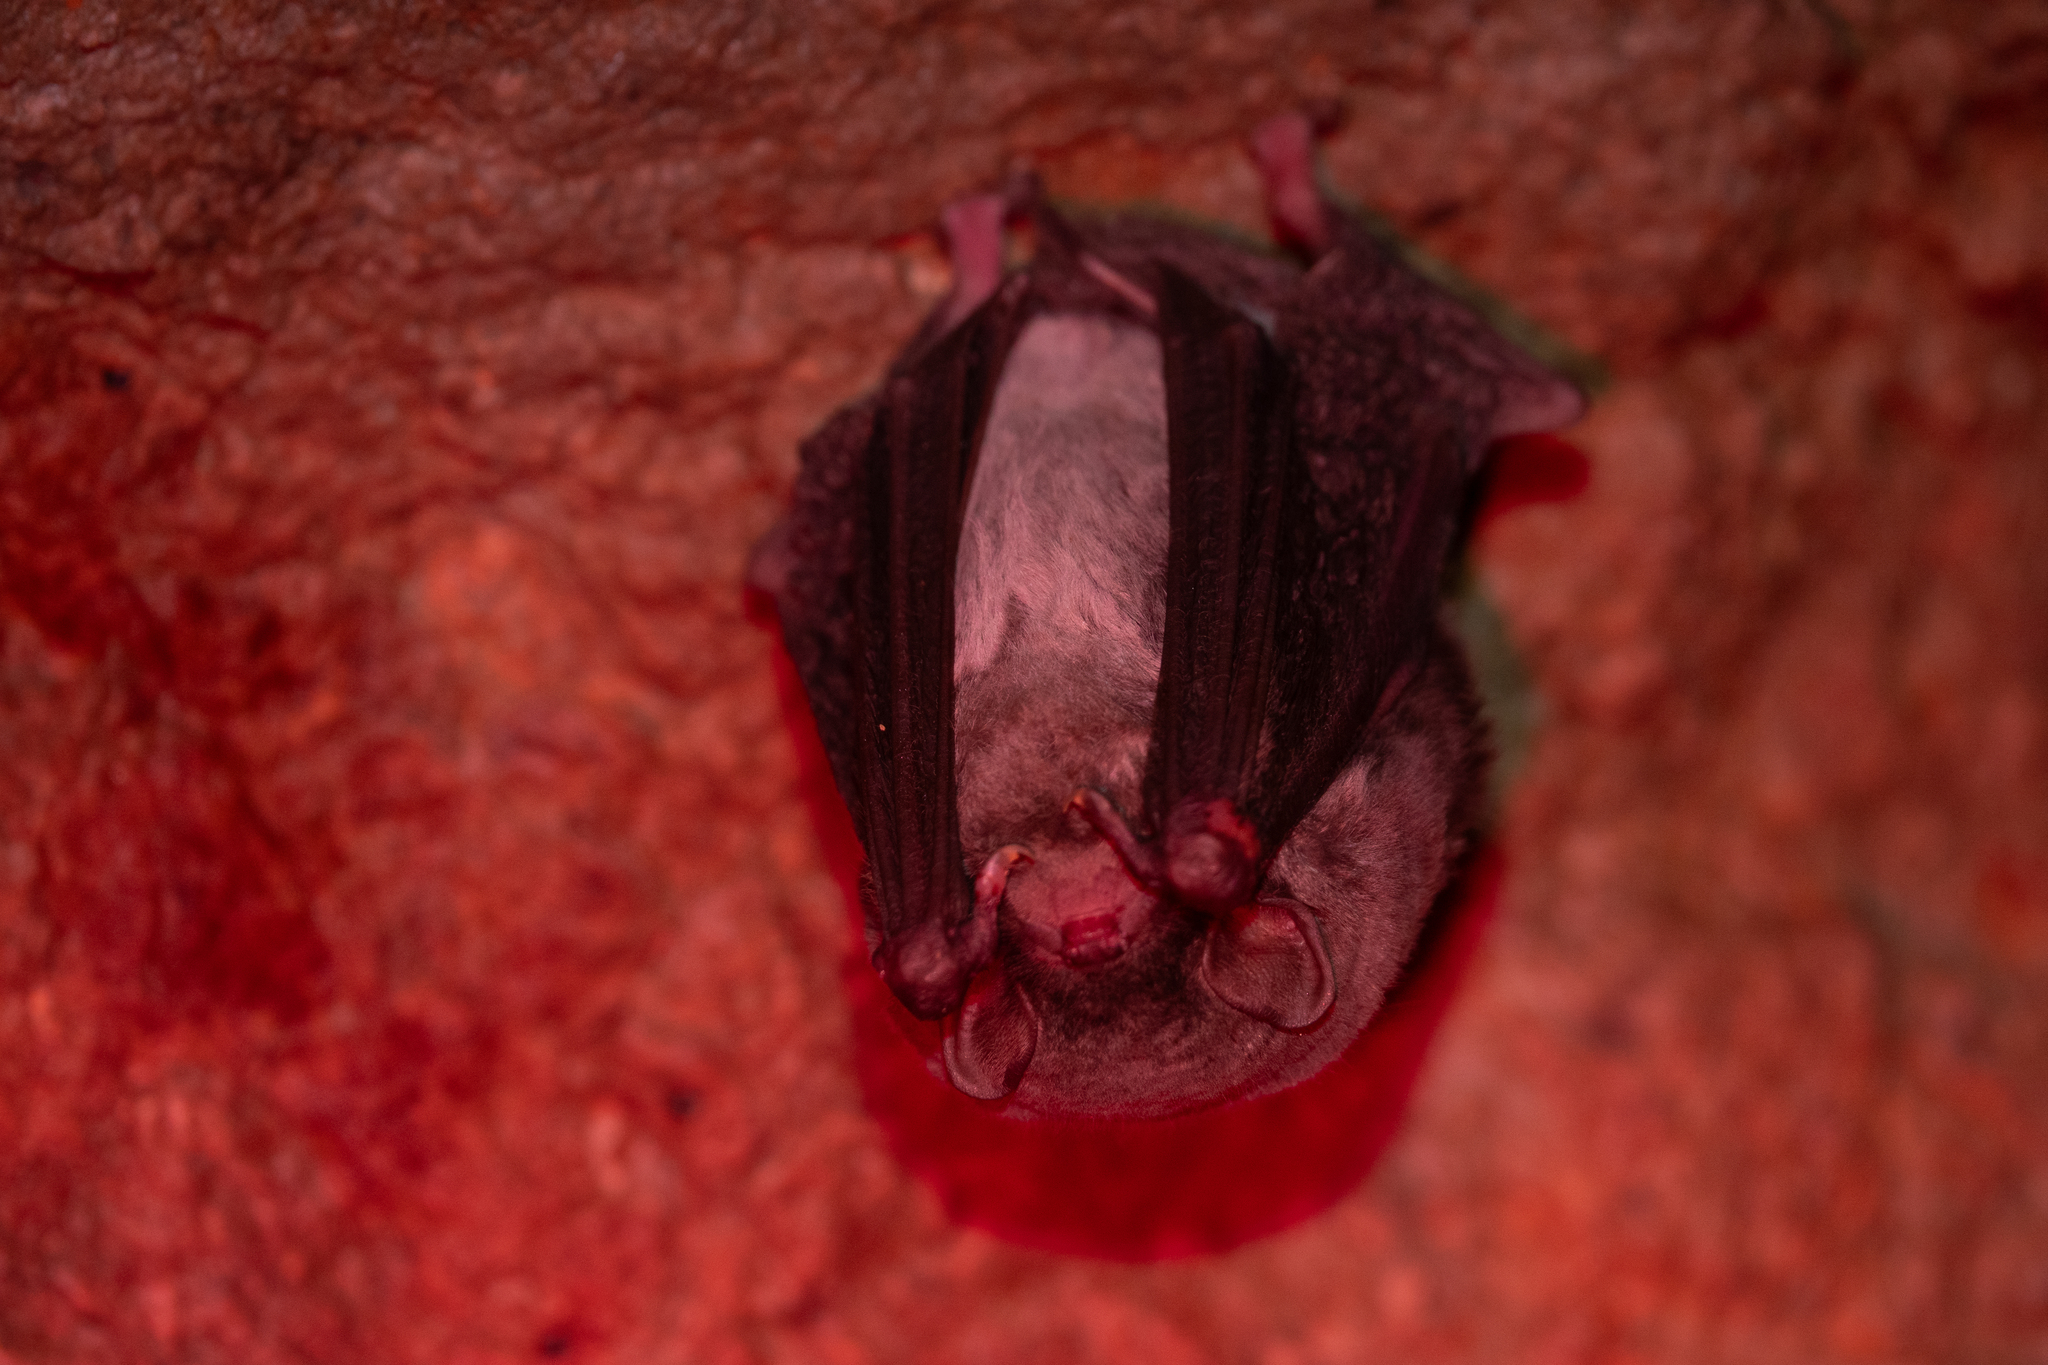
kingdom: Animalia
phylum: Chordata
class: Mammalia
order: Chiroptera
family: Miniopteridae
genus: Miniopterus
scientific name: Miniopterus schreibersii
